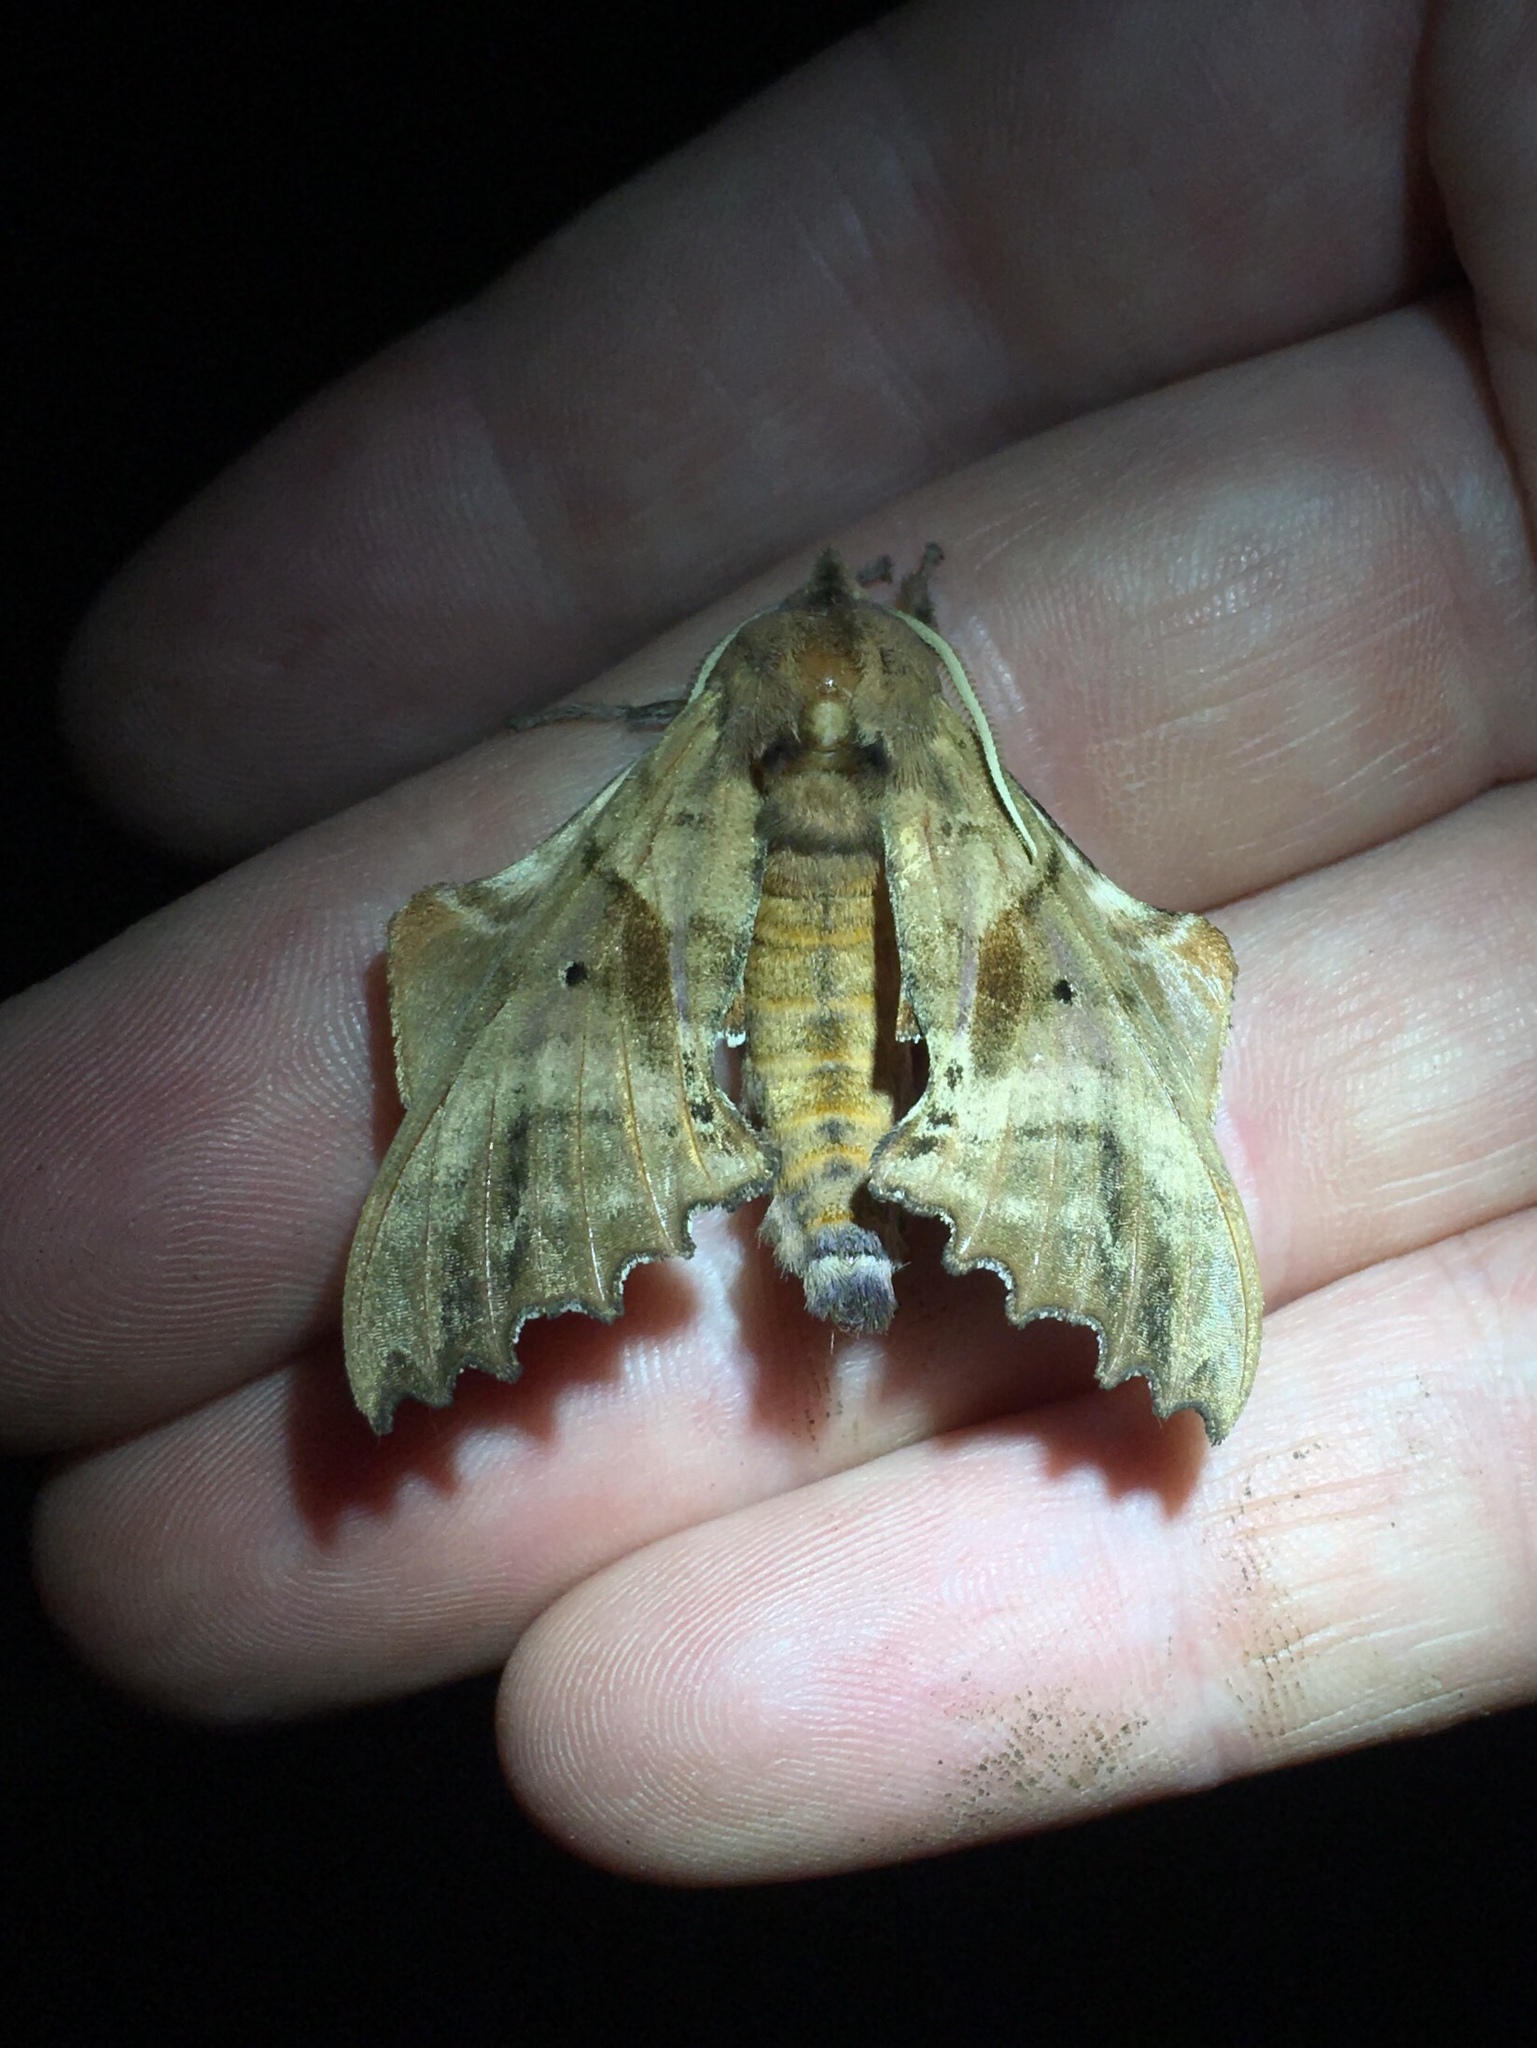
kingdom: Animalia
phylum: Arthropoda
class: Insecta
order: Lepidoptera
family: Sphingidae
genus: Paonias
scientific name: Paonias excaecata
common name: Blind-eyed sphinx
